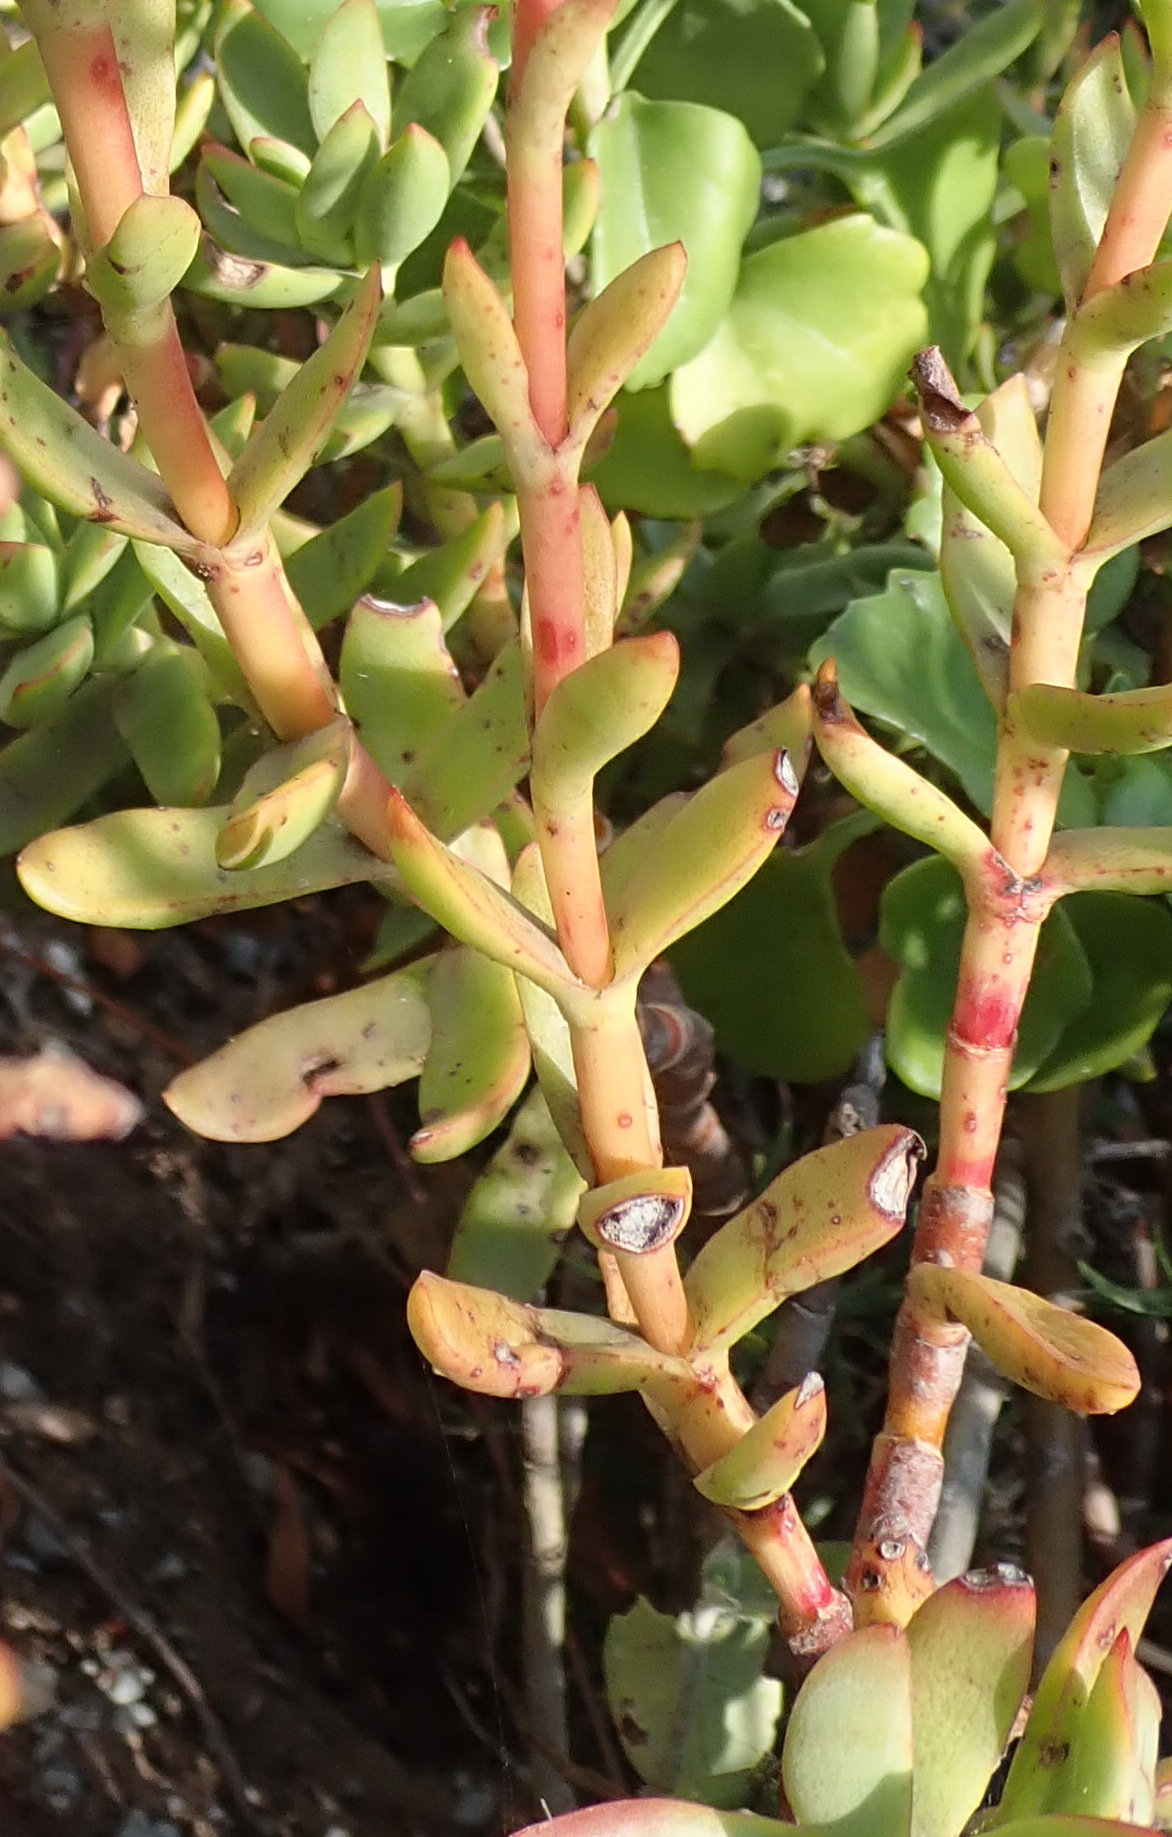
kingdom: Plantae
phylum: Tracheophyta
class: Magnoliopsida
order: Saxifragales
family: Crassulaceae
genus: Crassula
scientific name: Crassula rubricaulis
